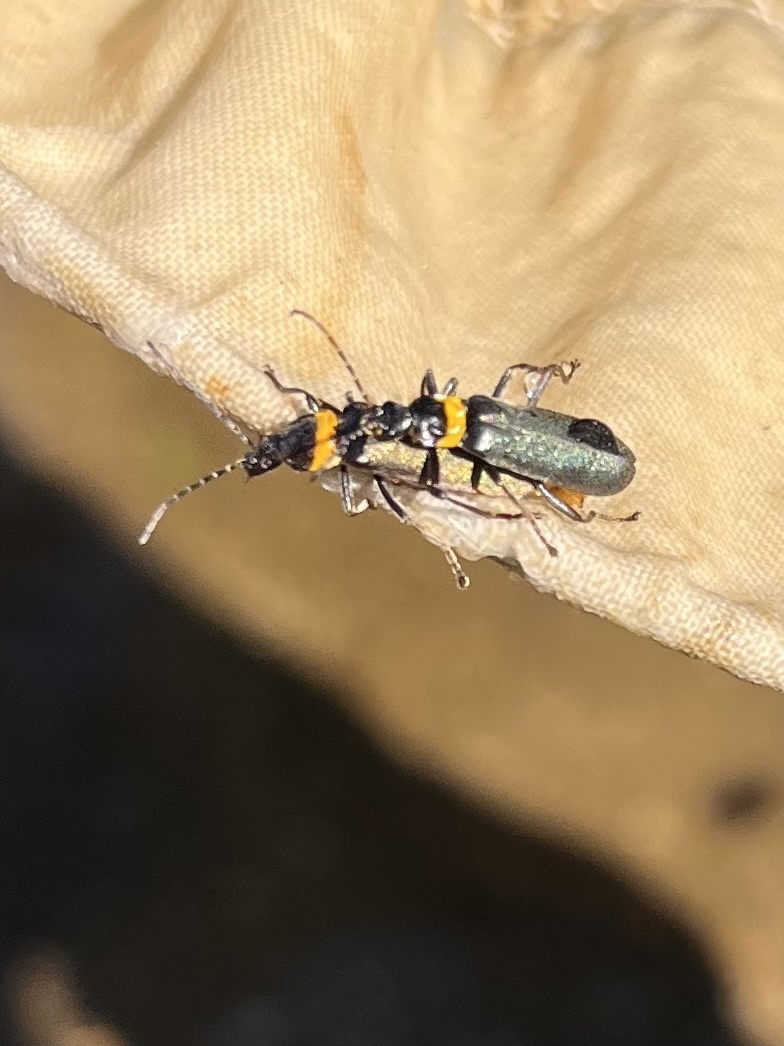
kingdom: Animalia
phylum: Arthropoda
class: Insecta
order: Coleoptera
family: Cantharidae
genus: Chauliognathus
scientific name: Chauliognathus
